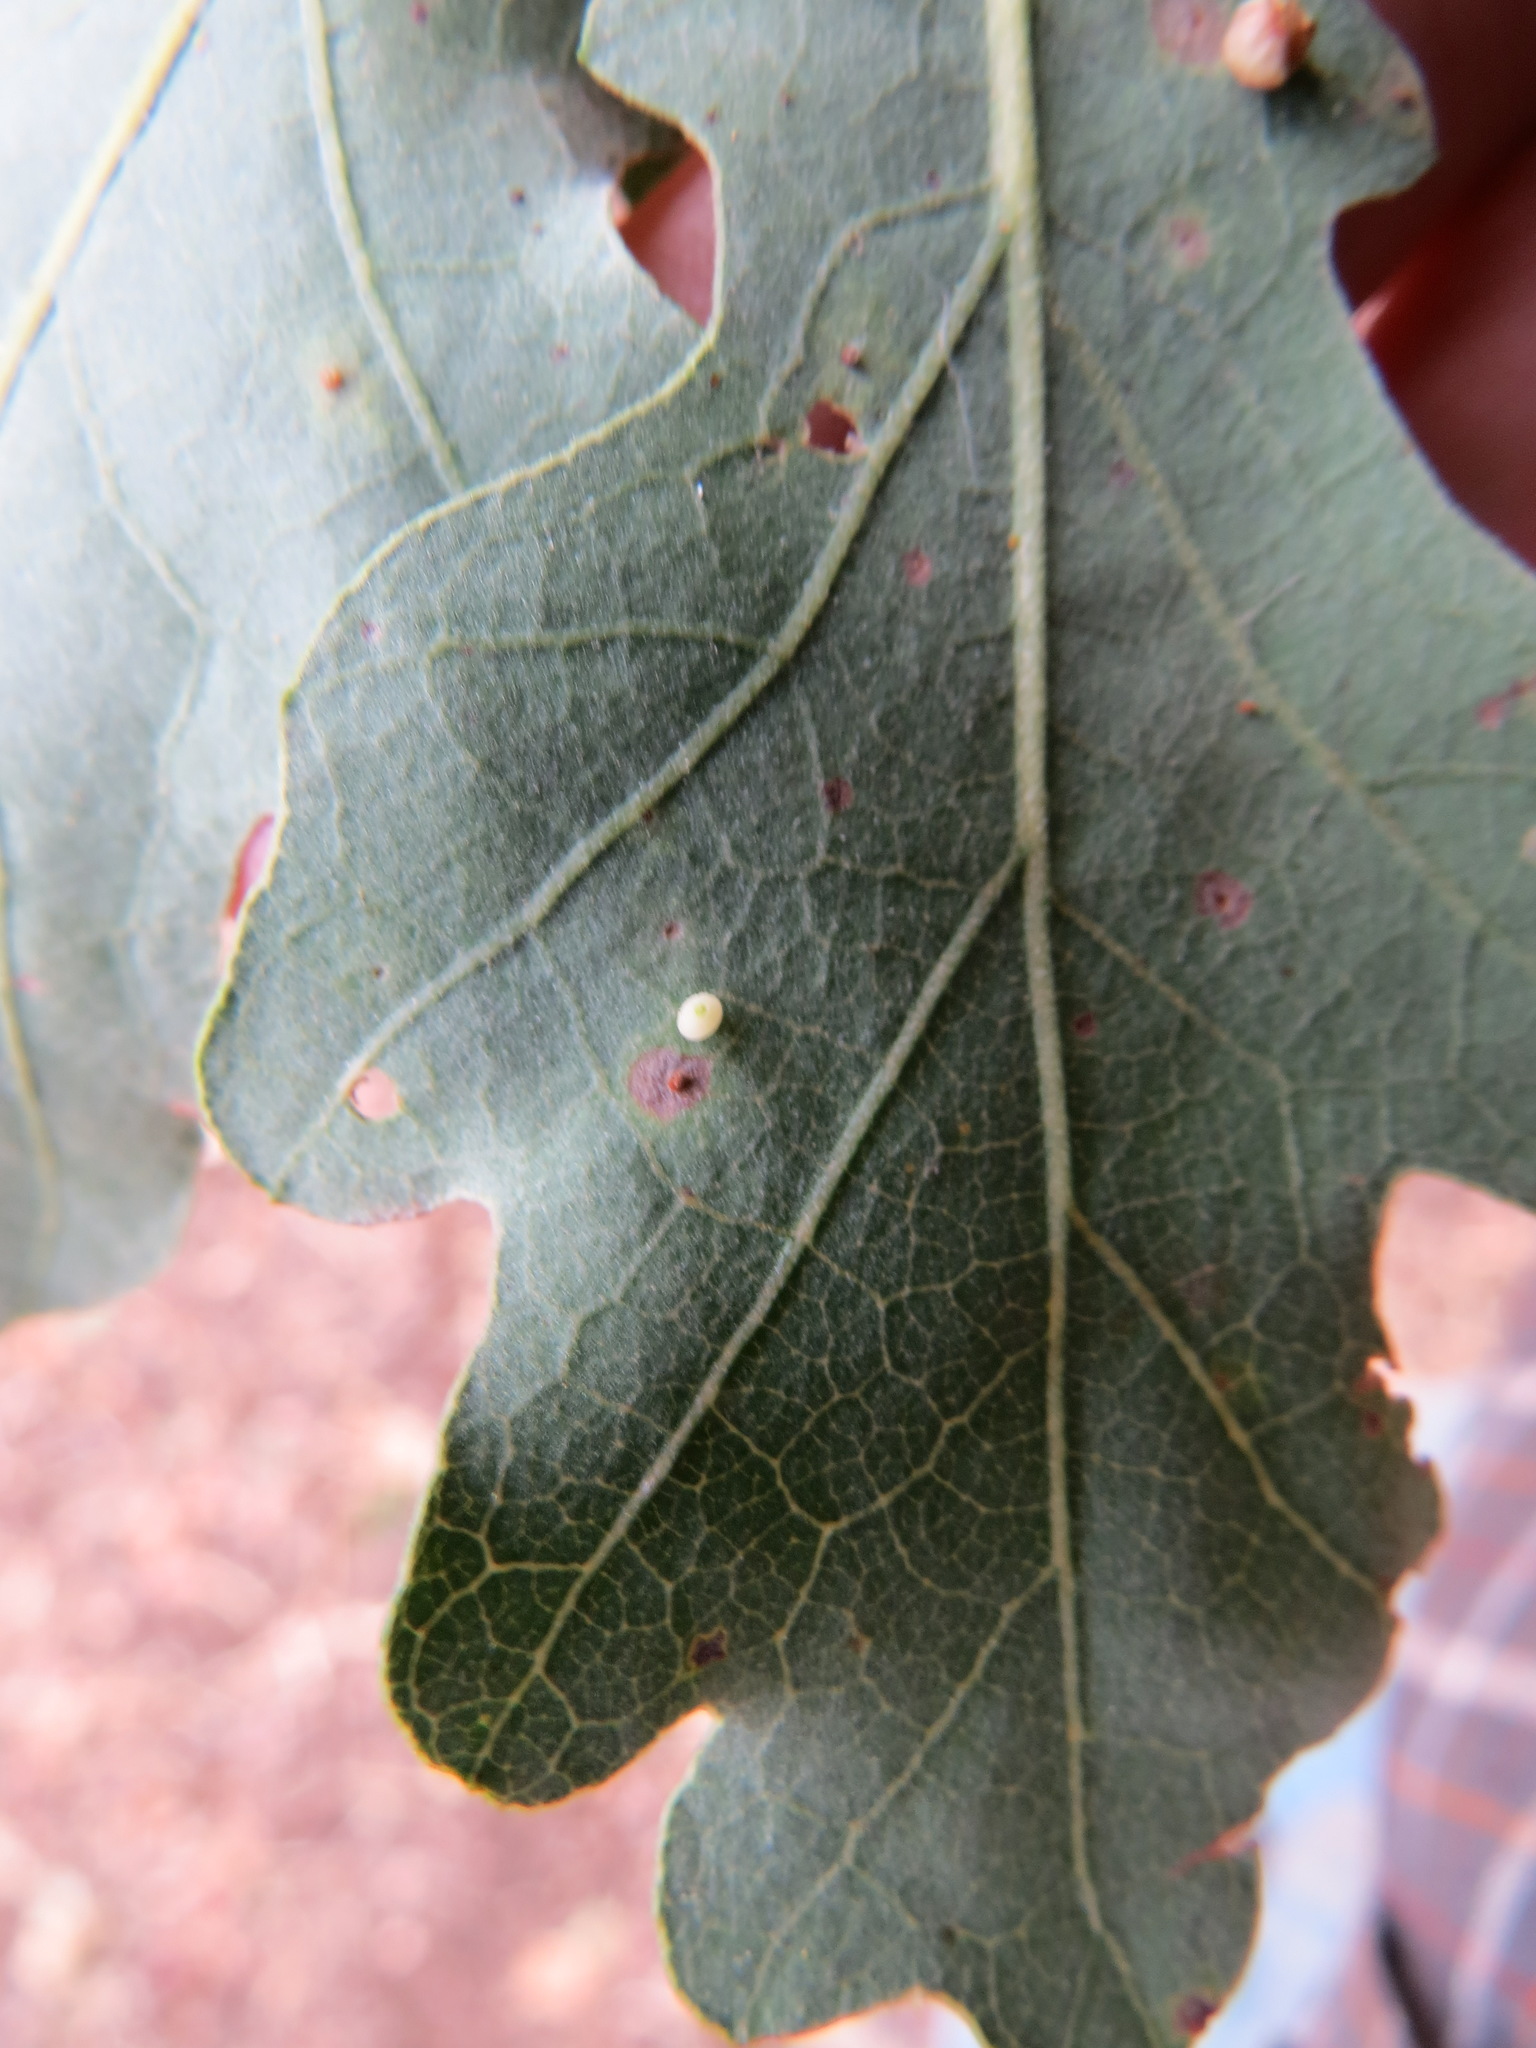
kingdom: Animalia
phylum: Arthropoda
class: Insecta
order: Hymenoptera
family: Cynipidae
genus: Neuroterus
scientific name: Neuroterus saltarius
